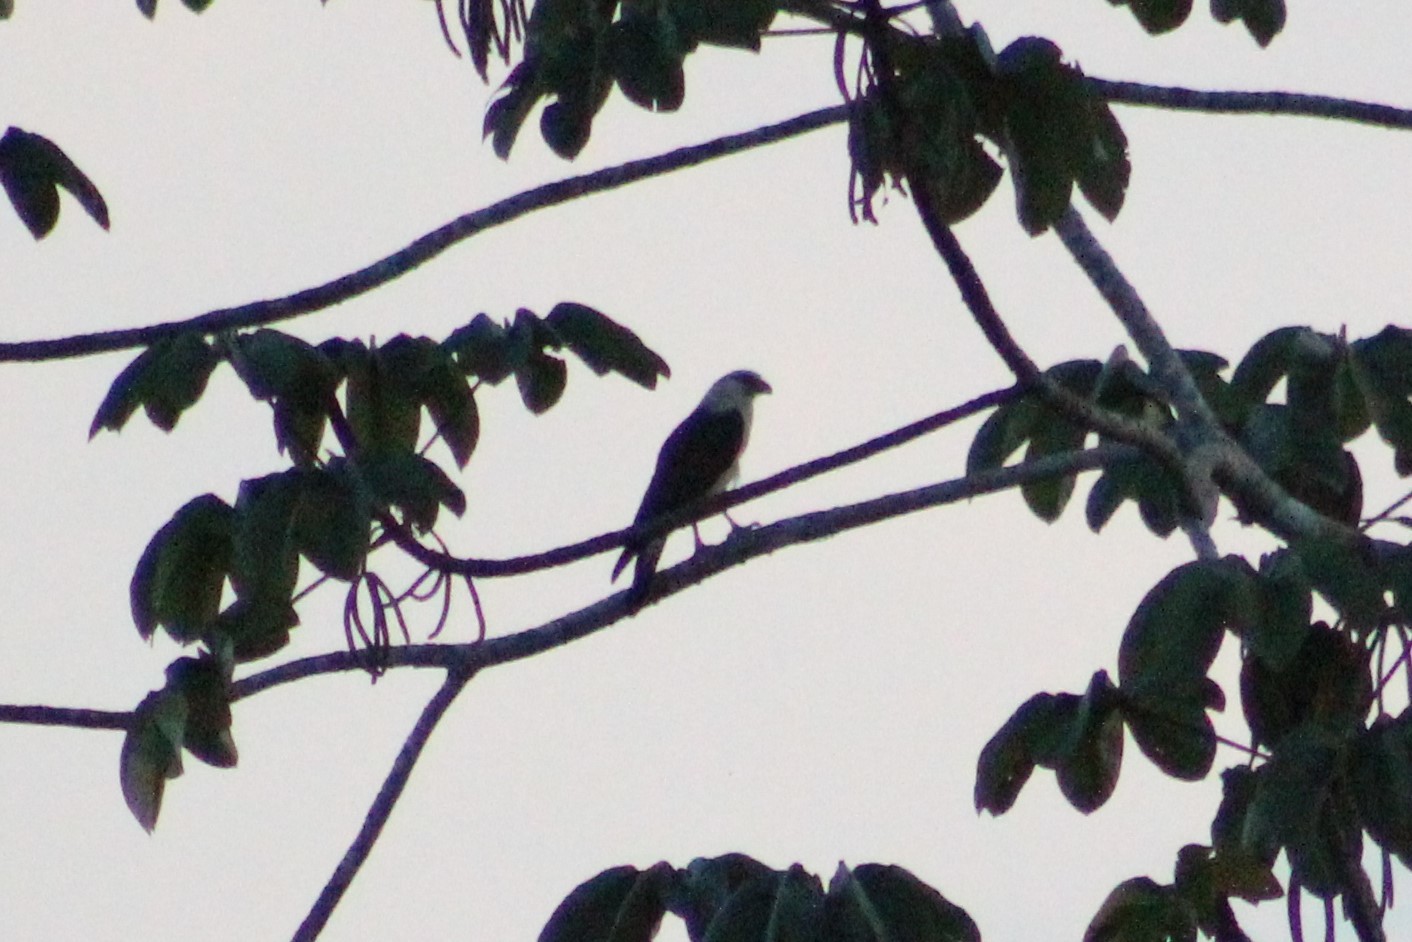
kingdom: Animalia
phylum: Chordata
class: Aves
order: Falconiformes
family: Falconidae
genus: Daptrius
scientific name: Daptrius
